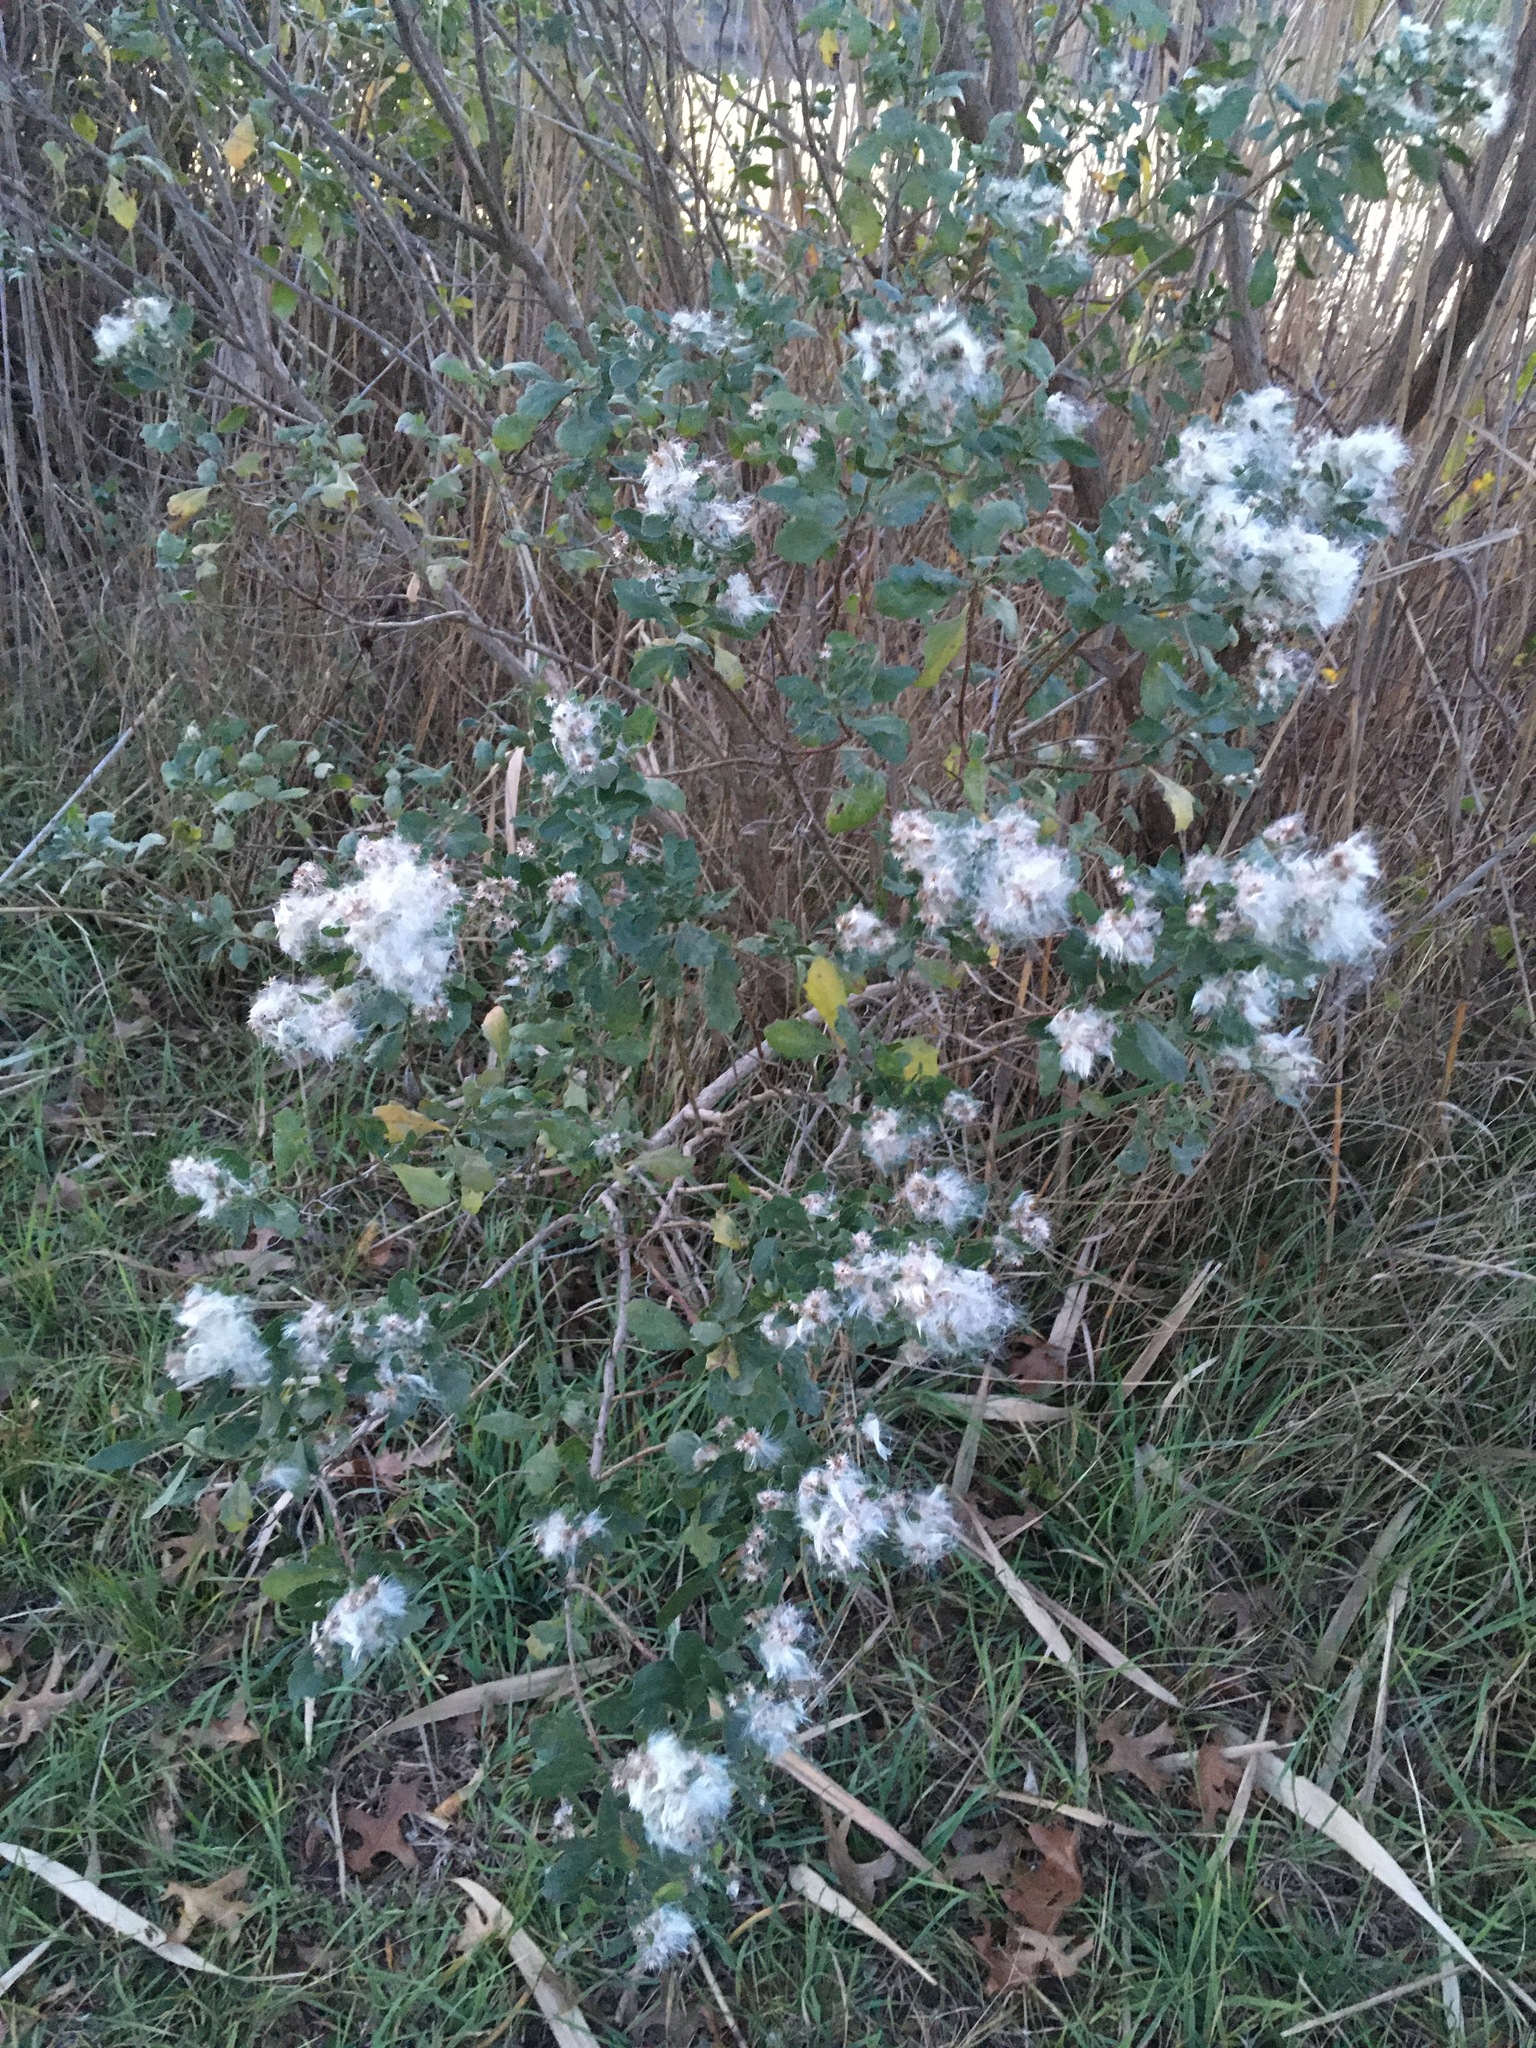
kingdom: Plantae
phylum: Tracheophyta
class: Magnoliopsida
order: Asterales
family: Asteraceae
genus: Baccharis
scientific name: Baccharis halimifolia
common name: Eastern baccharis
